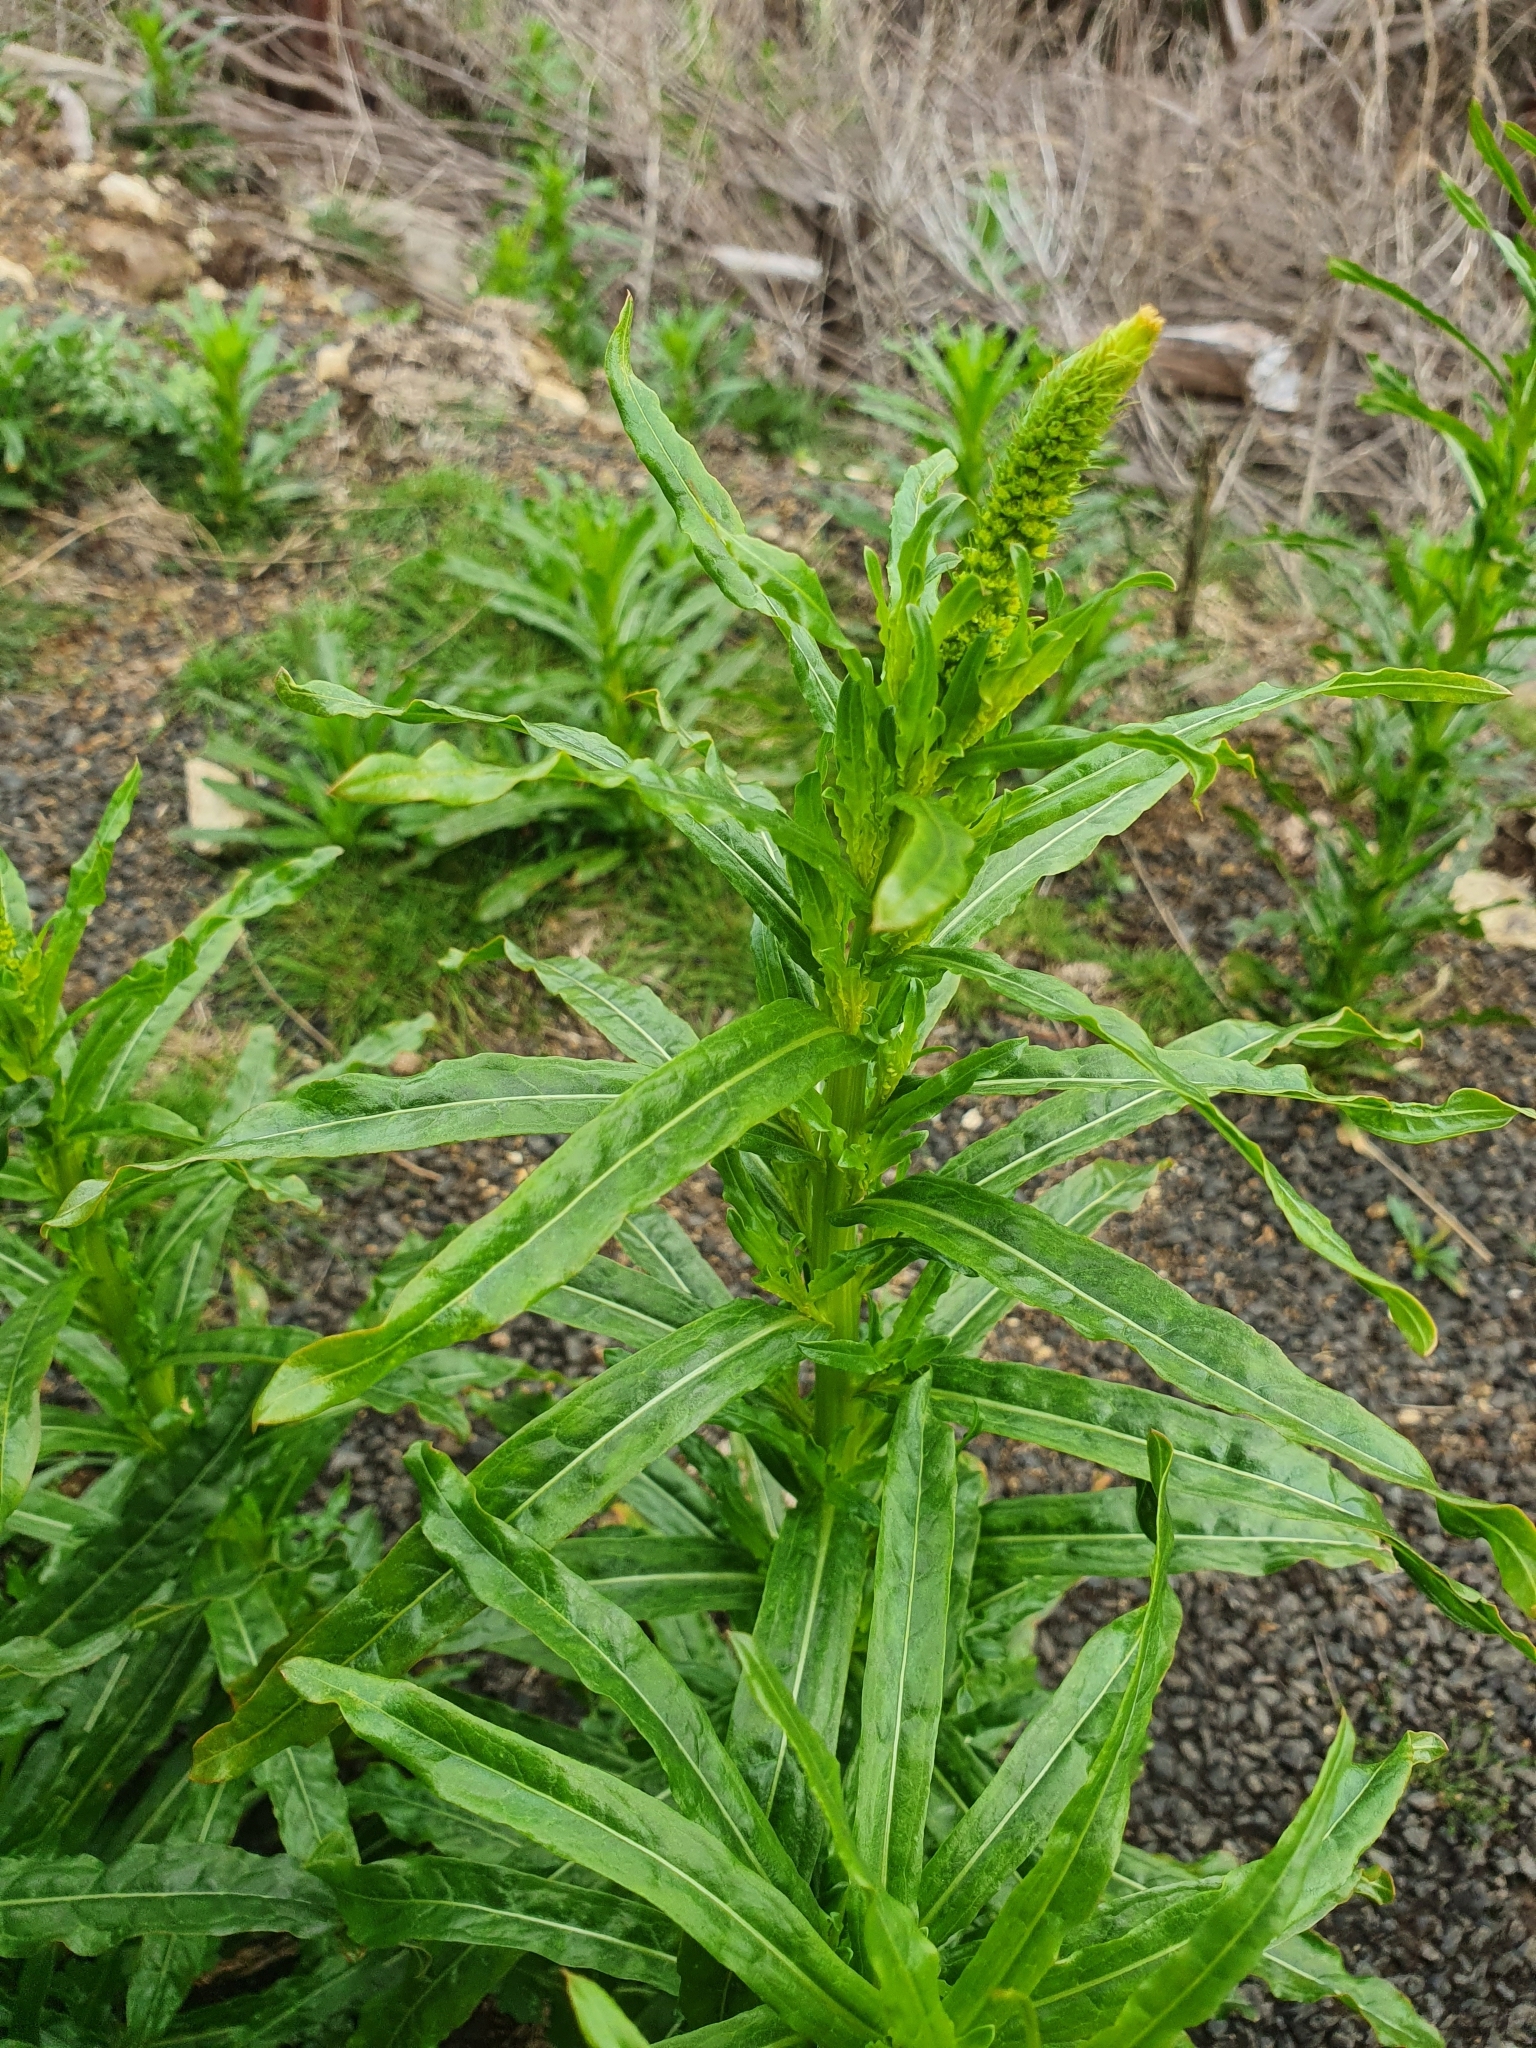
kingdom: Plantae
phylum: Tracheophyta
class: Magnoliopsida
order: Brassicales
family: Resedaceae
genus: Reseda
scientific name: Reseda luteola
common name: Weld
